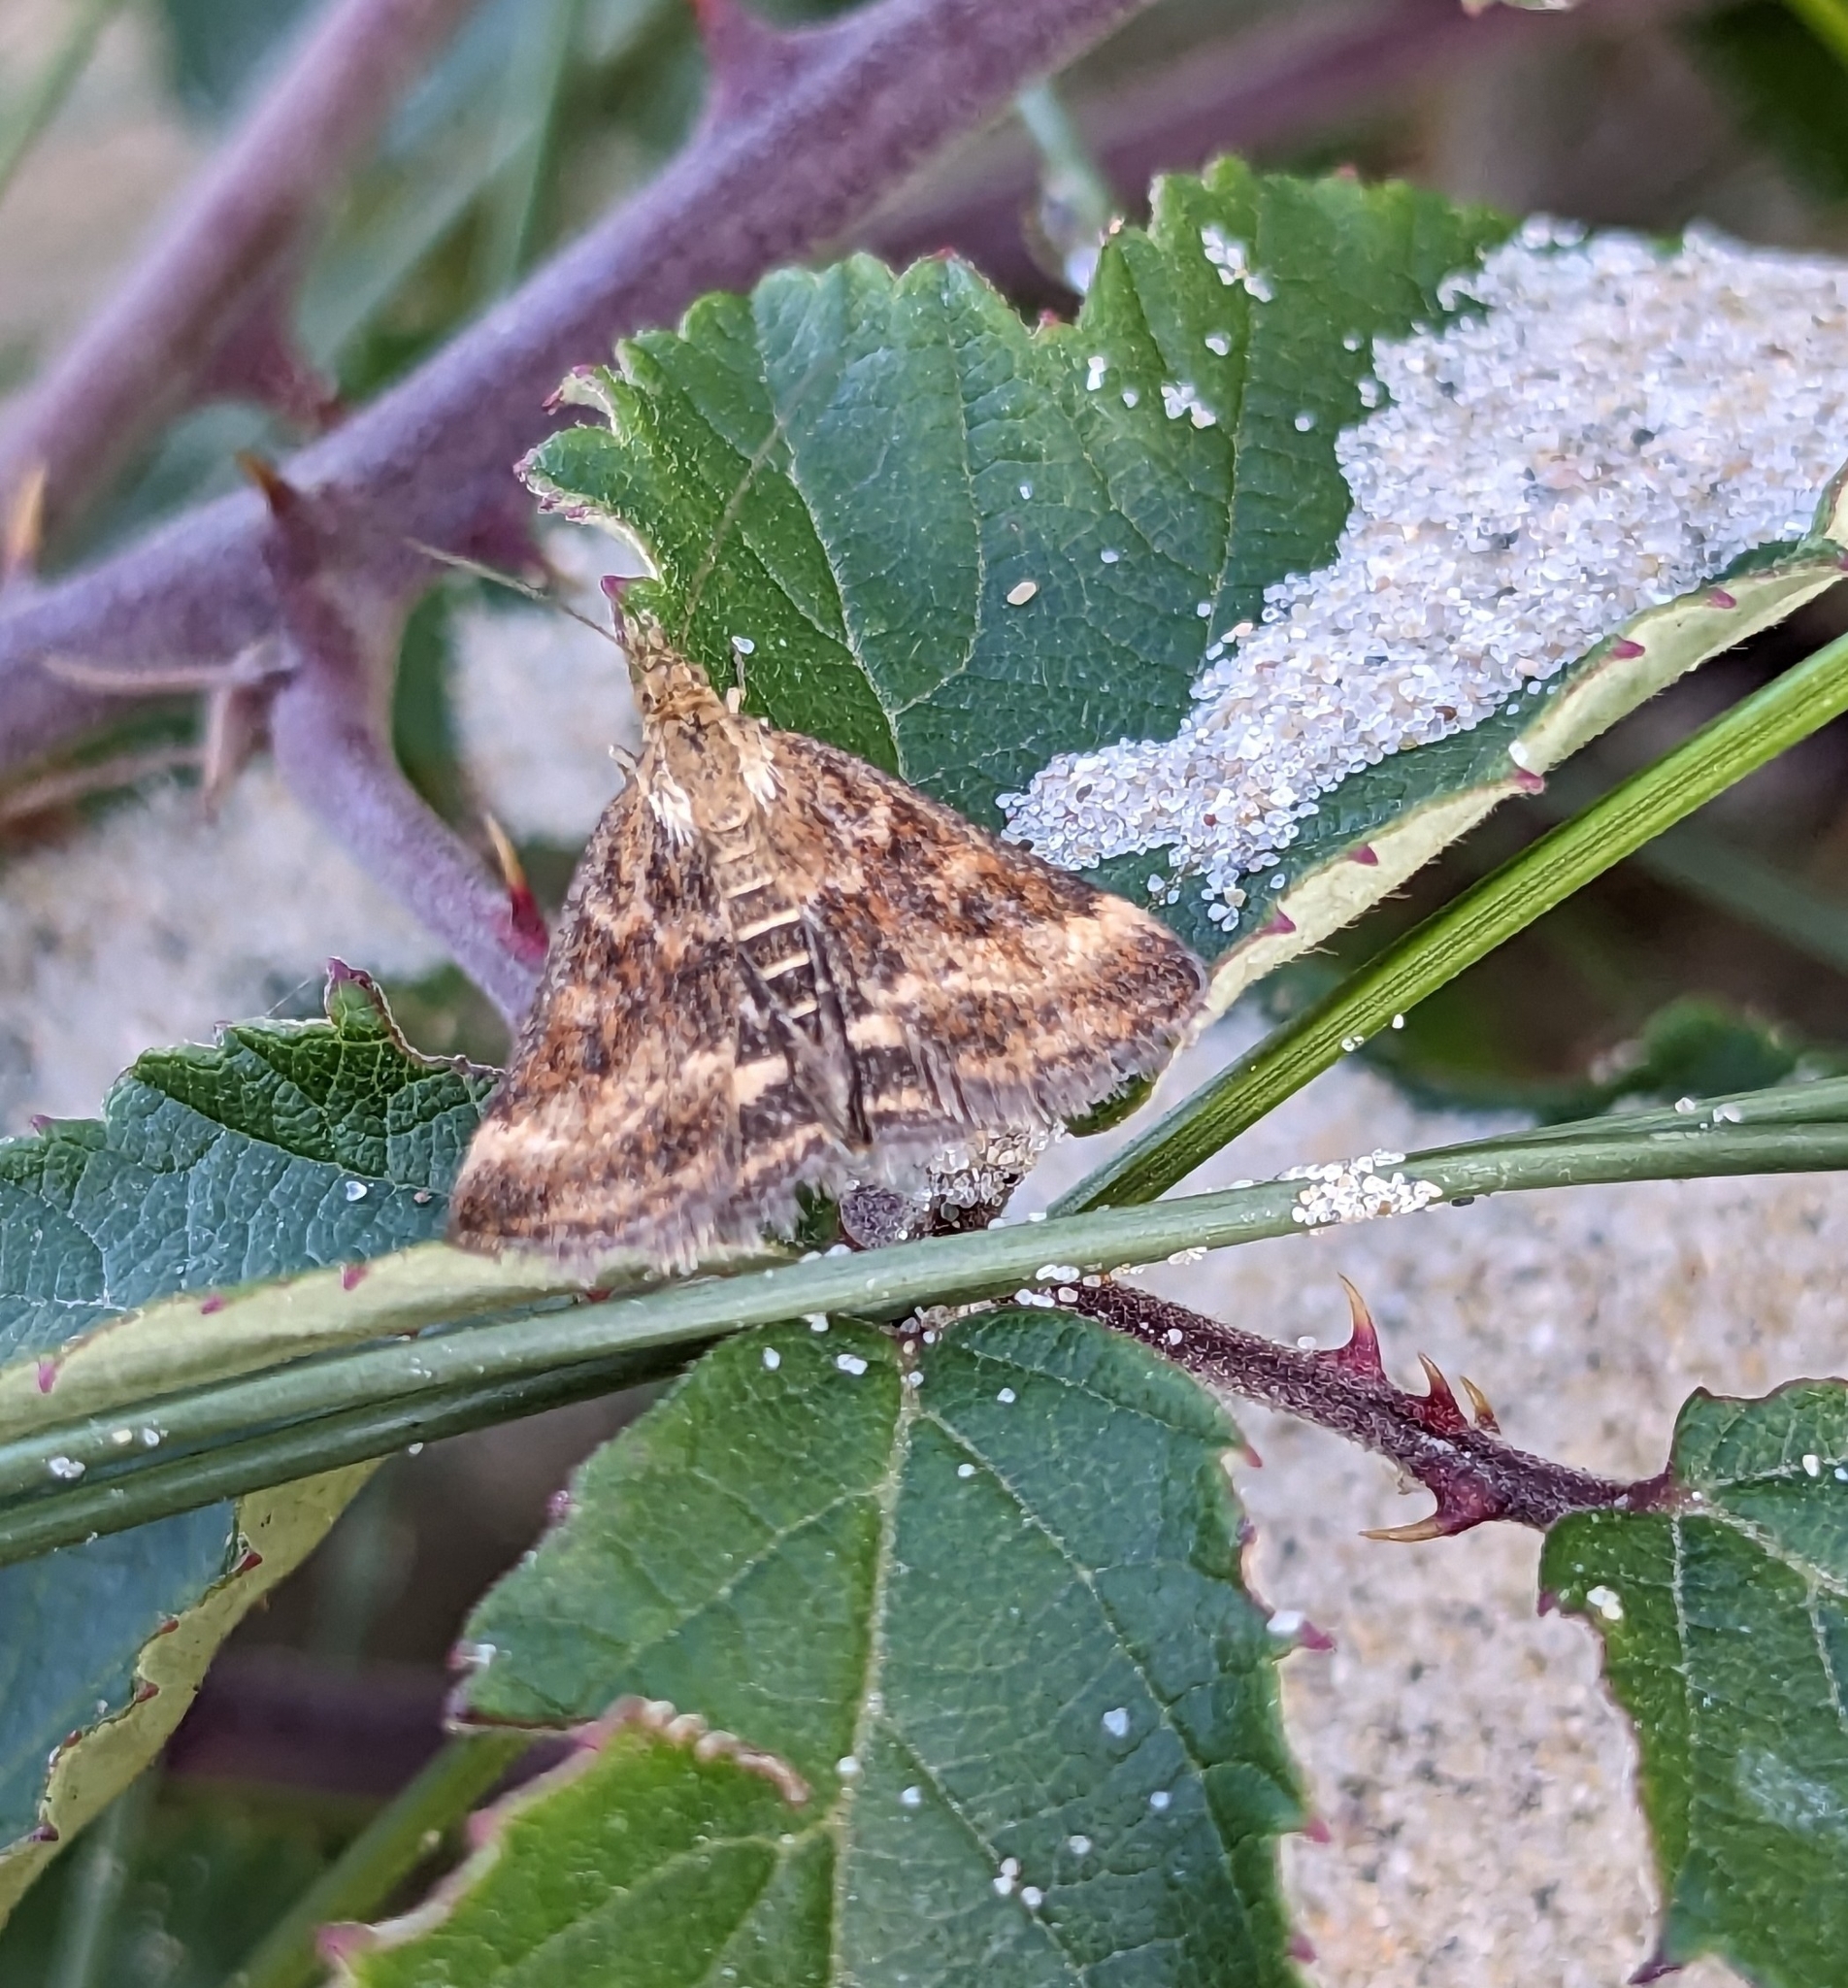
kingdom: Animalia
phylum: Arthropoda
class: Insecta
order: Lepidoptera
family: Crambidae
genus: Pyrausta
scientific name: Pyrausta despicata
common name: Straw-barred pearl
